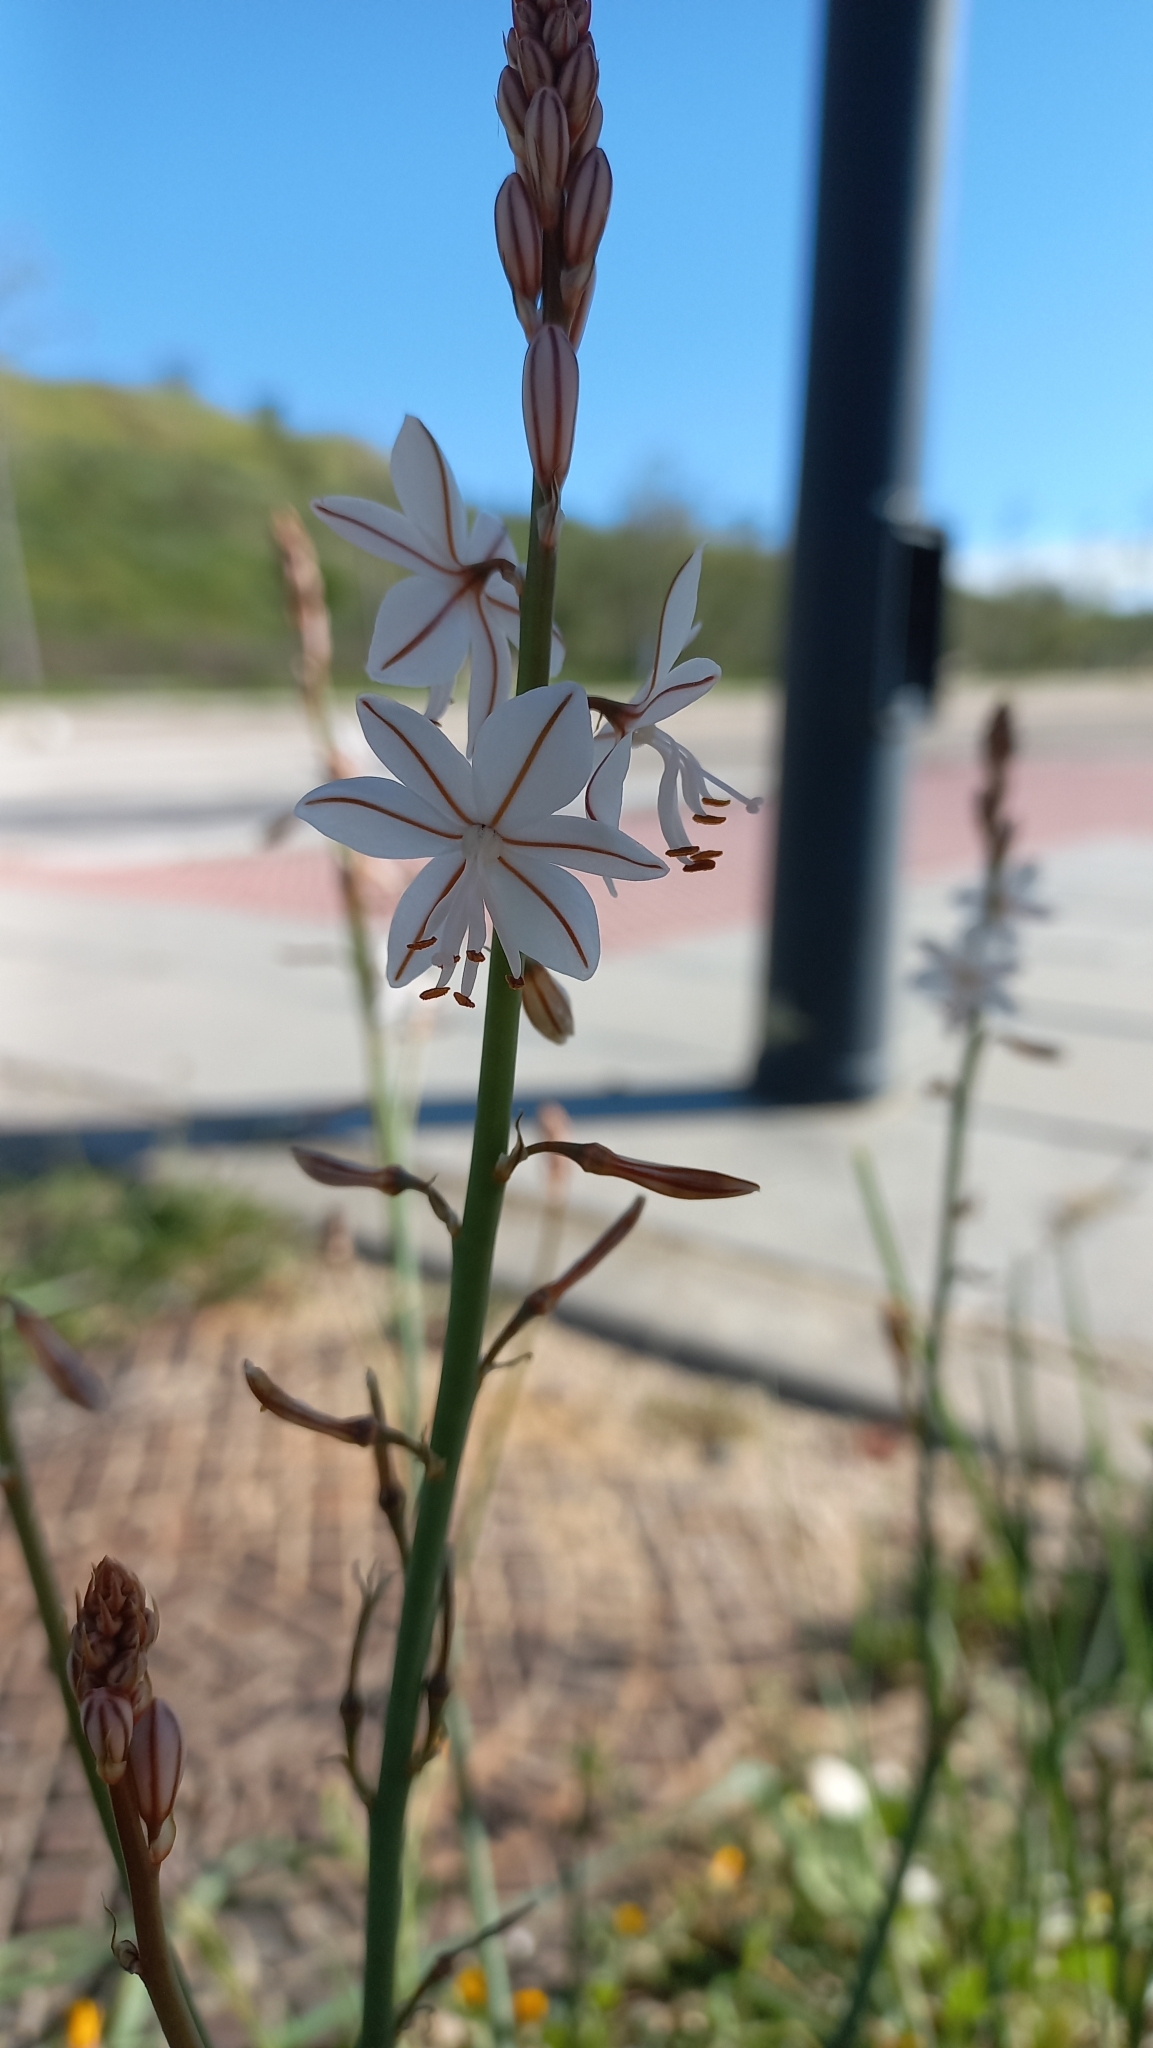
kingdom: Plantae
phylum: Tracheophyta
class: Liliopsida
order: Asparagales
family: Asphodelaceae
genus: Asphodelus
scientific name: Asphodelus fistulosus
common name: Onionweed
